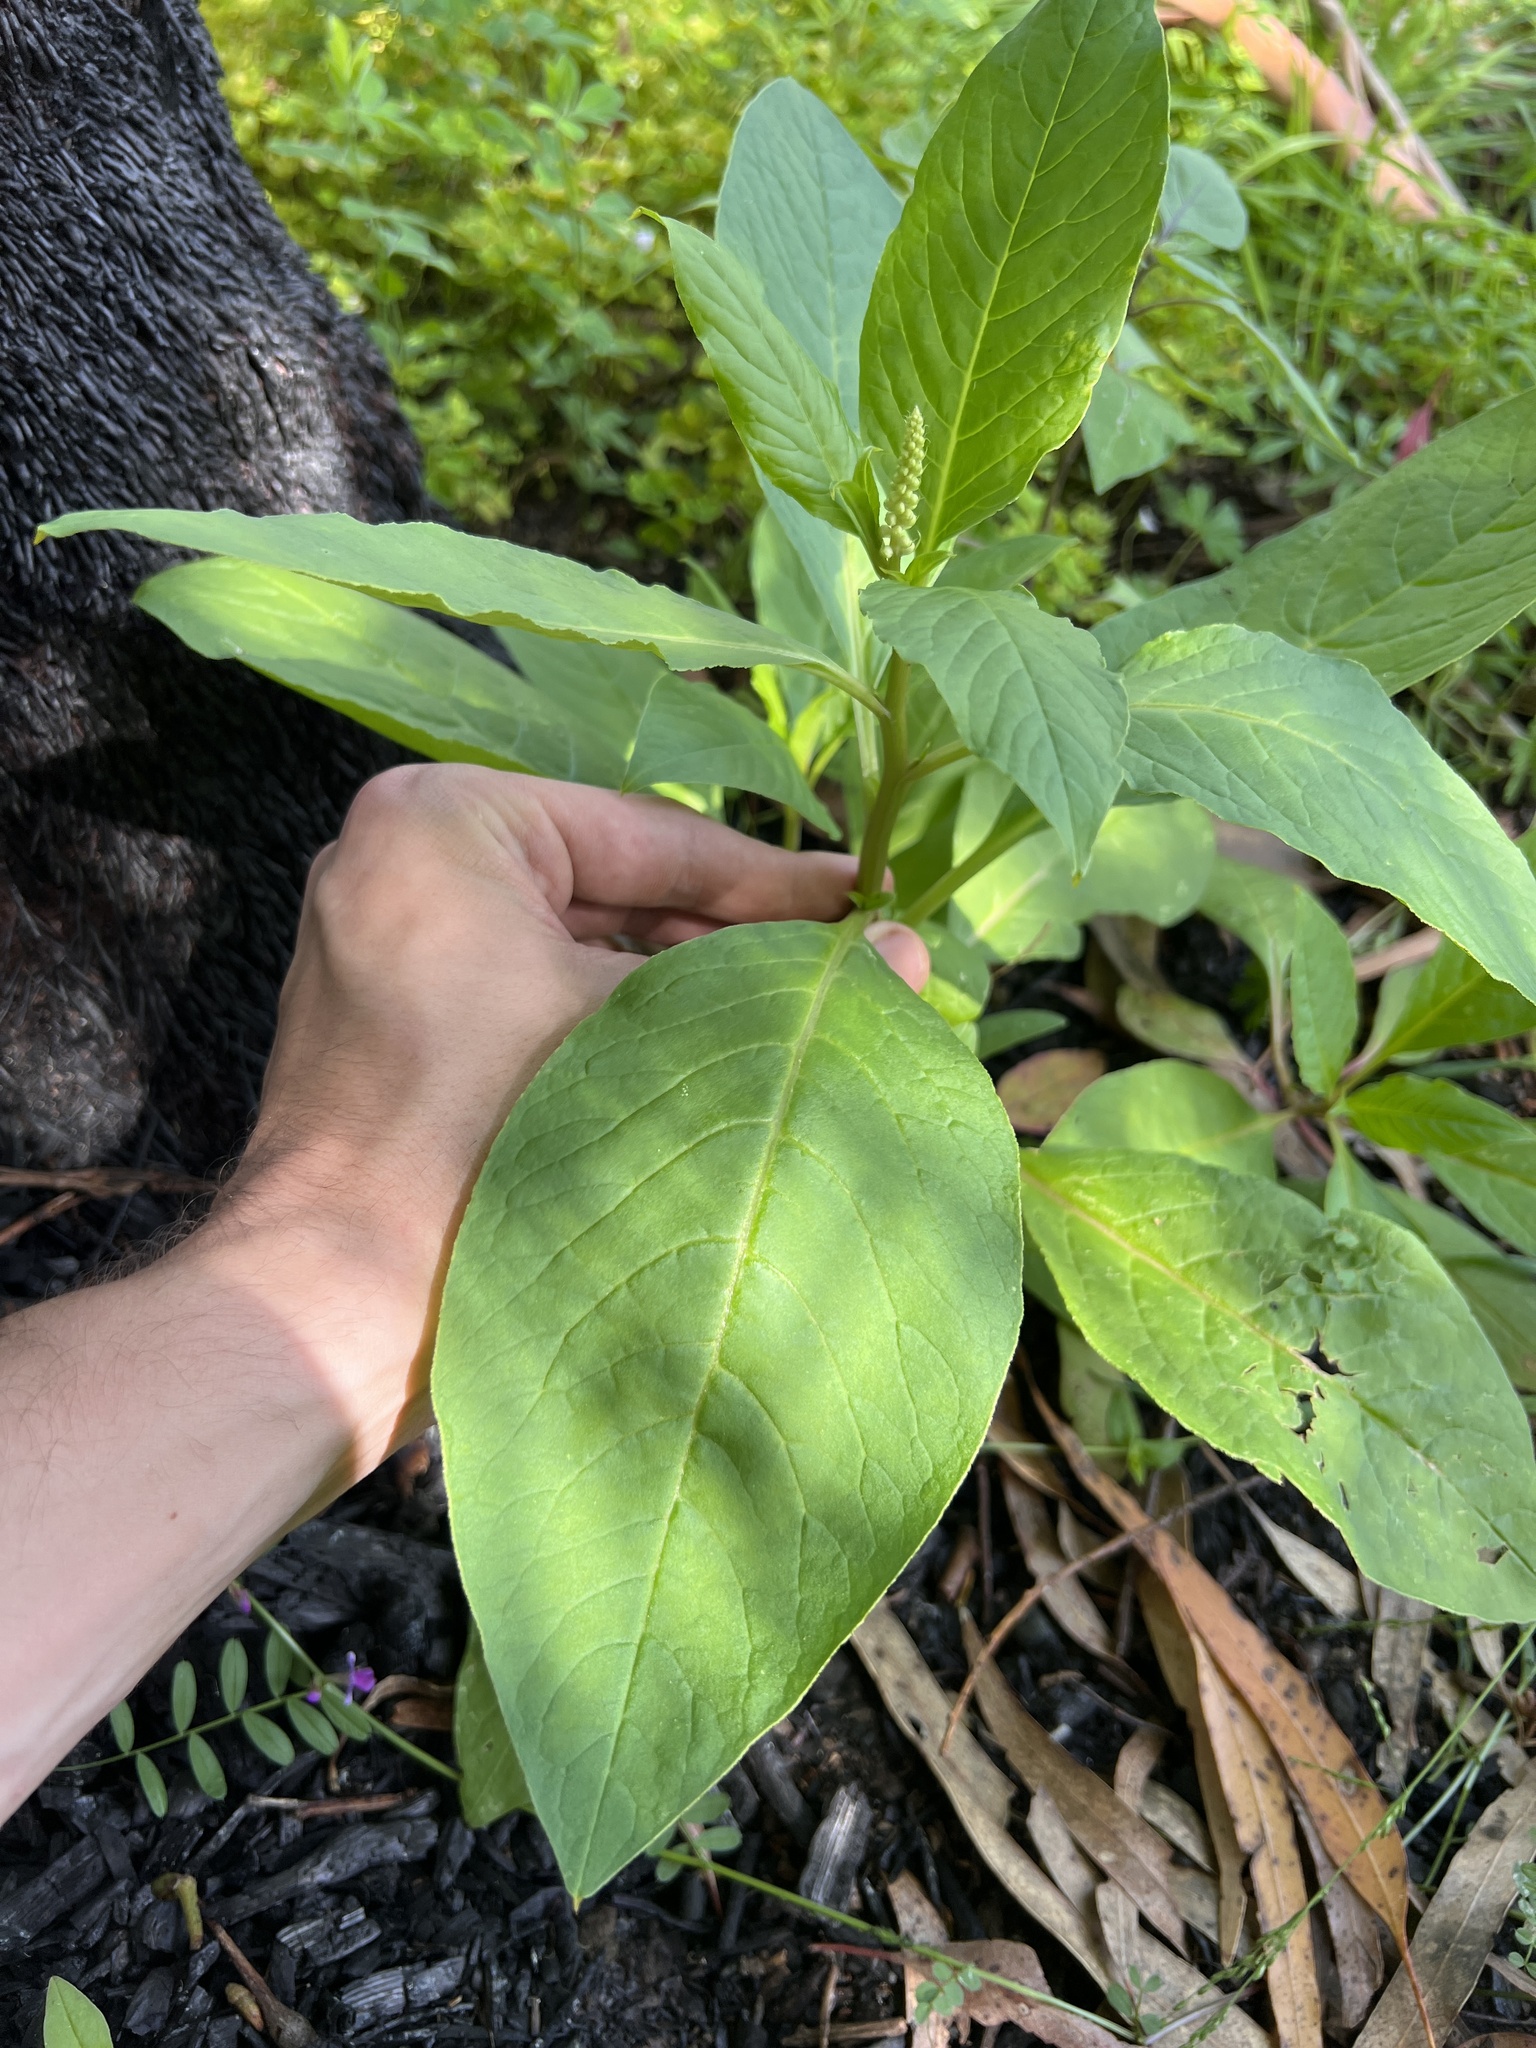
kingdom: Plantae
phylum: Tracheophyta
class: Magnoliopsida
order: Caryophyllales
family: Phytolaccaceae
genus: Phytolacca
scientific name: Phytolacca icosandra
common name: Button pokeweed
